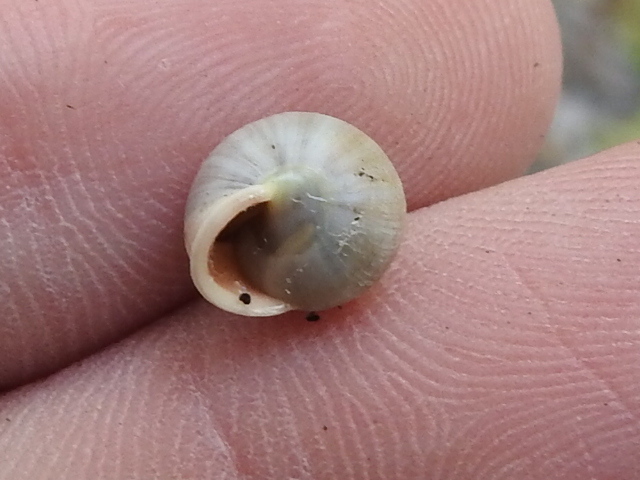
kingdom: Animalia
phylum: Mollusca
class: Gastropoda
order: Cycloneritida
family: Helicinidae
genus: Helicina
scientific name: Helicina orbiculata
